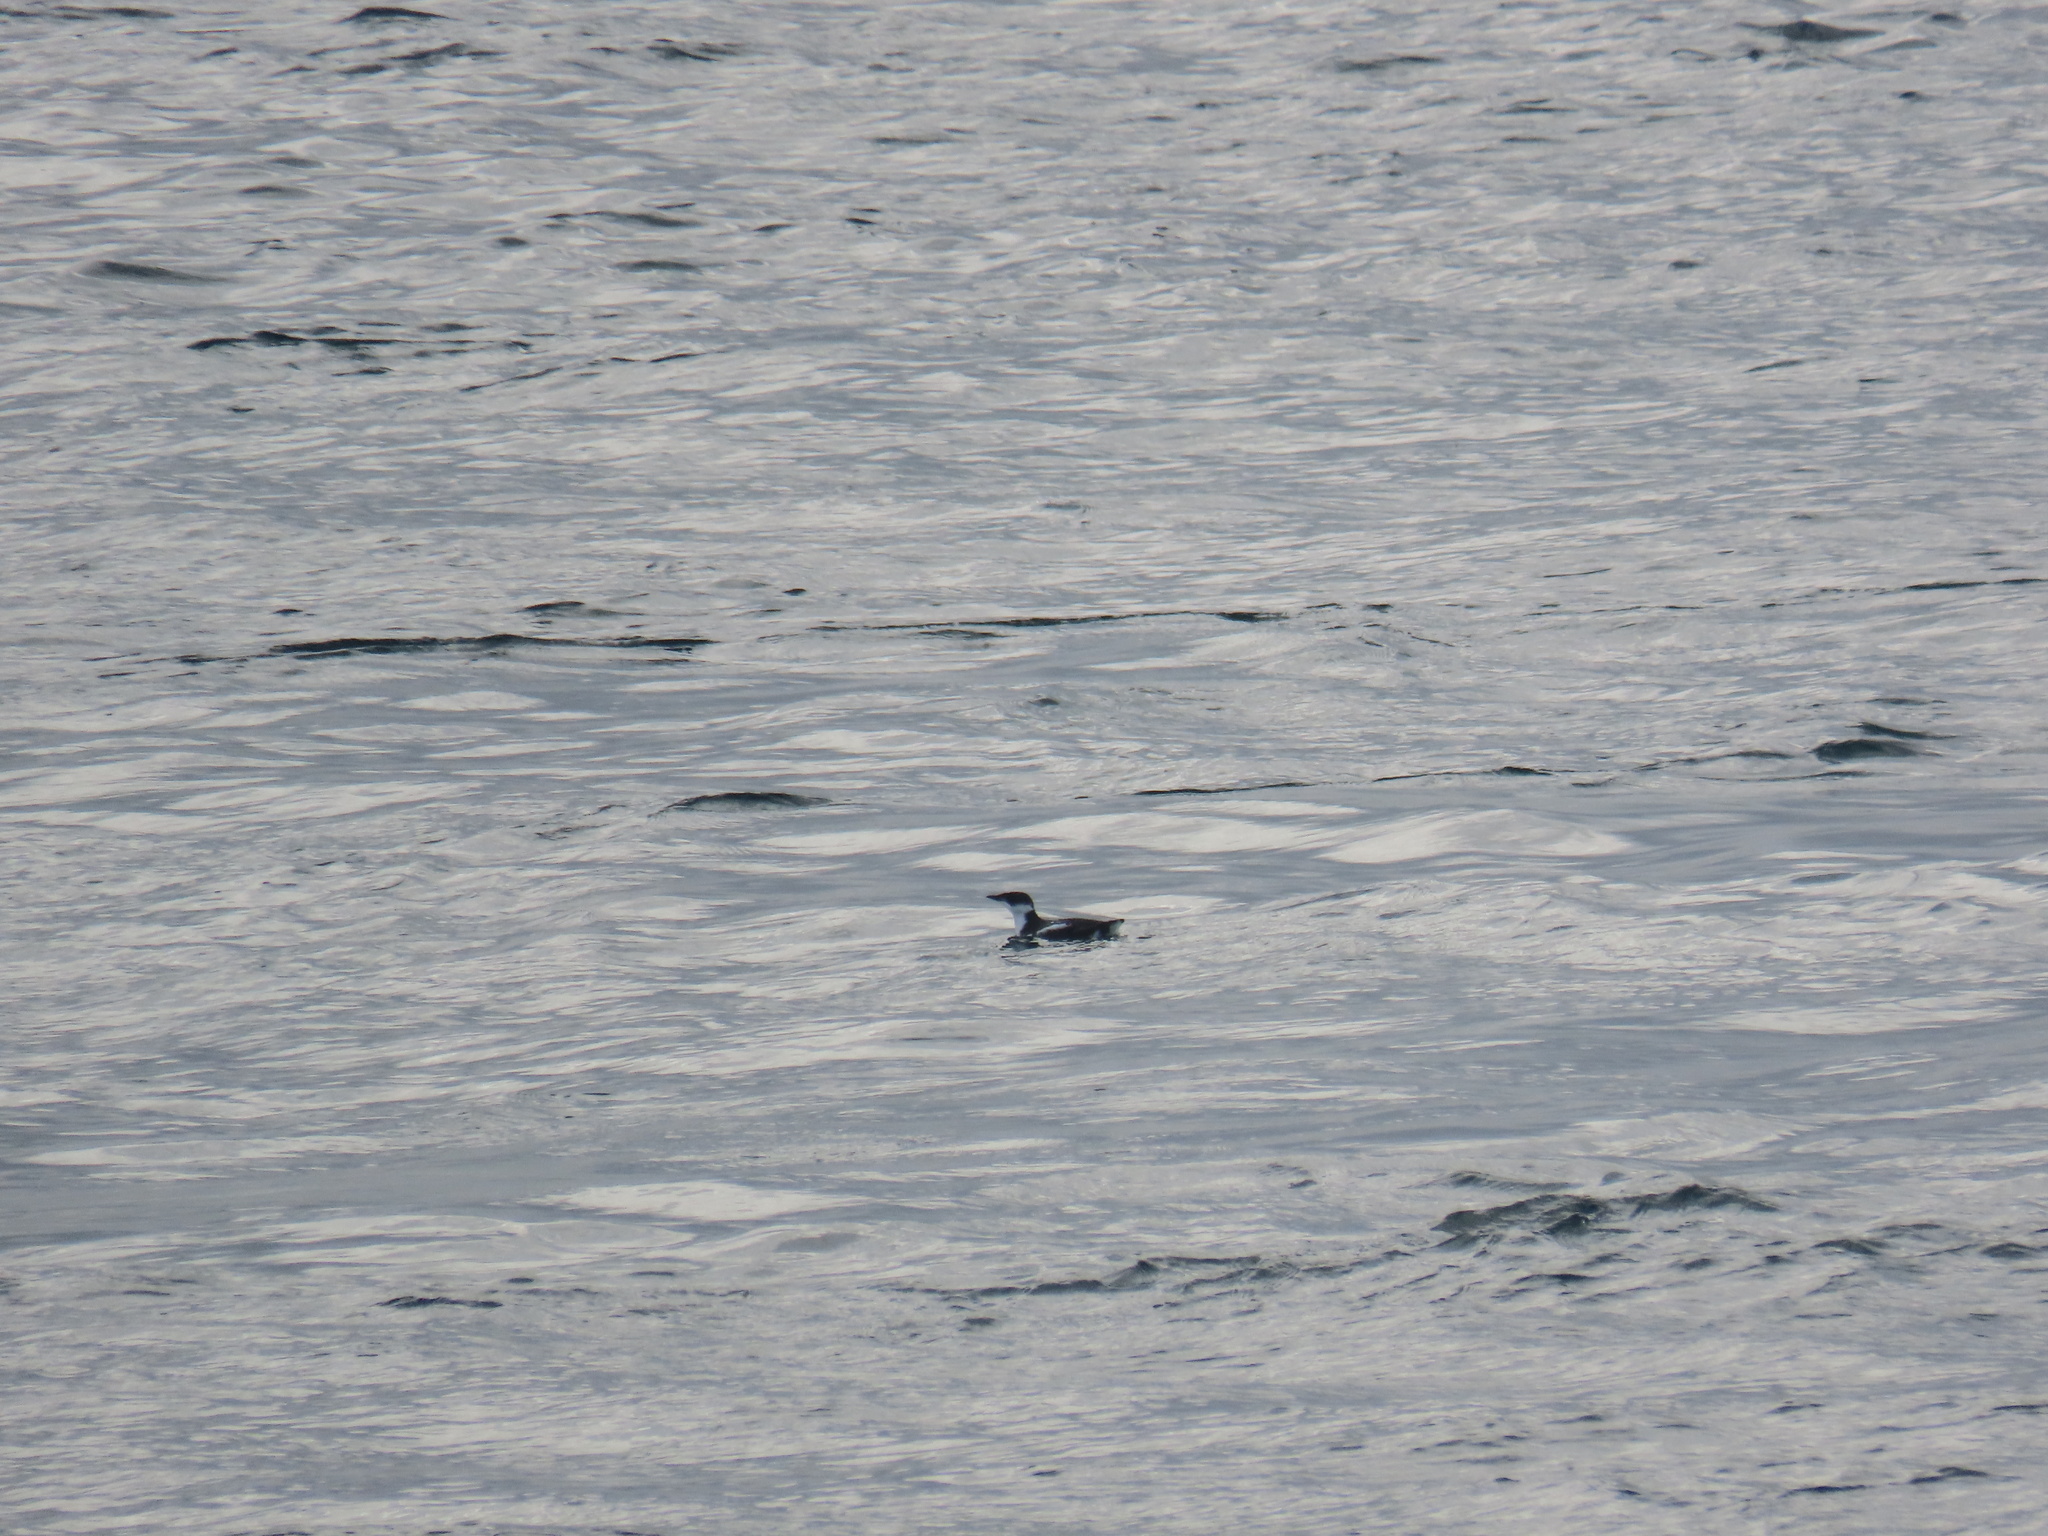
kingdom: Animalia
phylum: Chordata
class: Aves
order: Charadriiformes
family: Alcidae
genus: Uria
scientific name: Uria aalge
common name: Common murre
